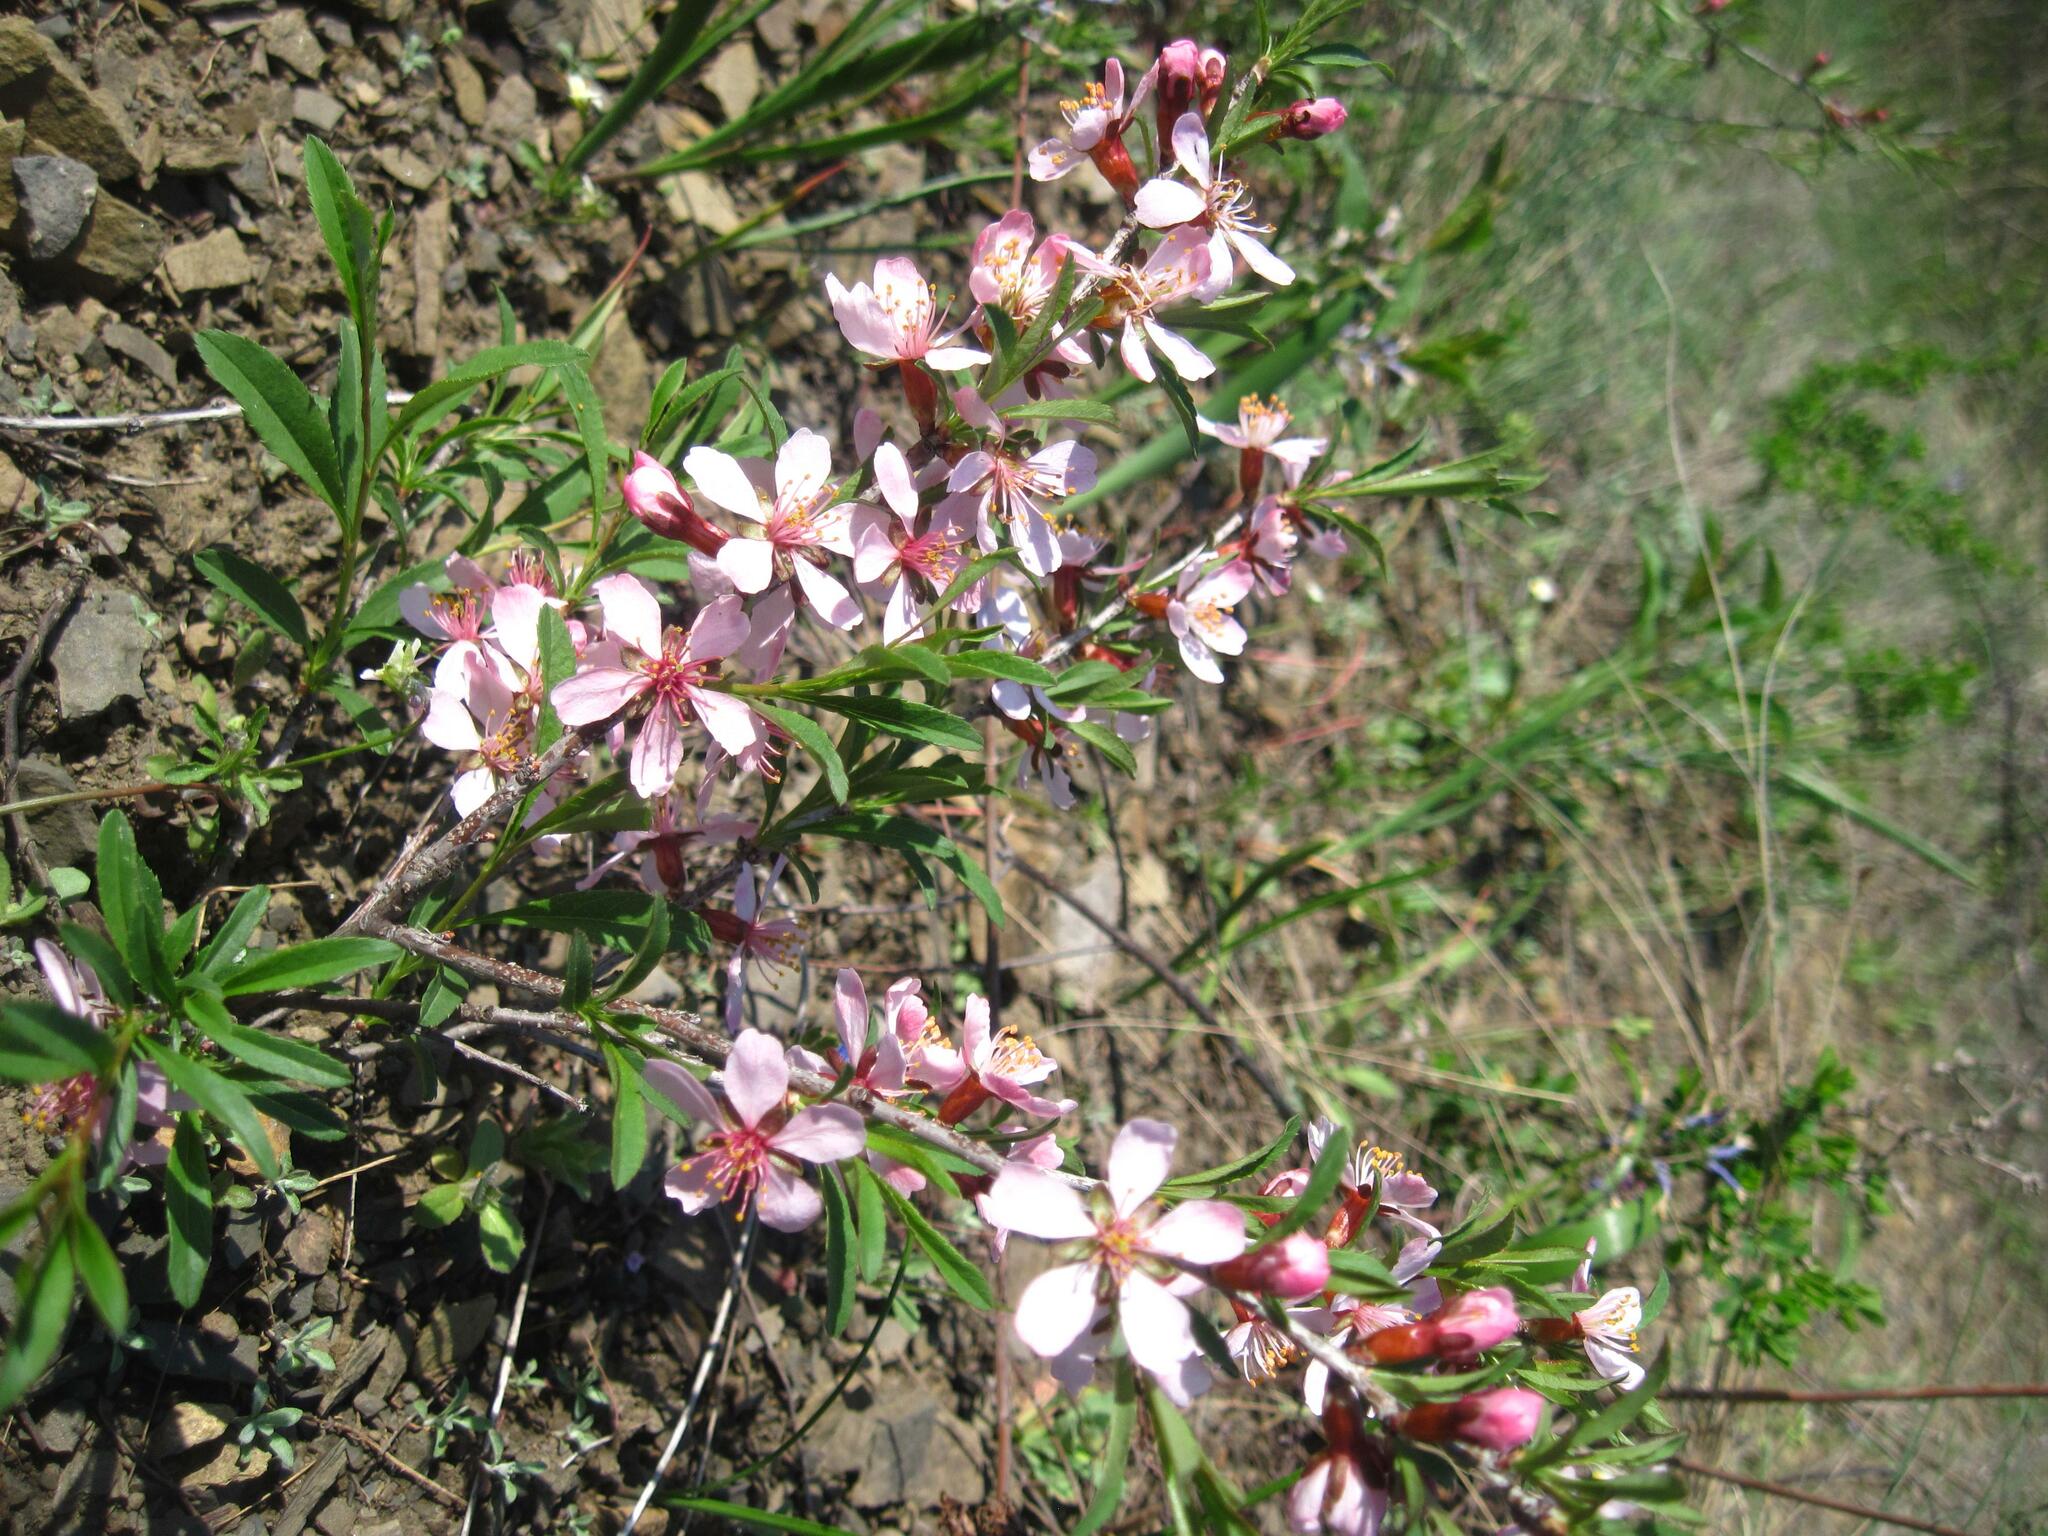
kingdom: Plantae
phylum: Tracheophyta
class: Magnoliopsida
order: Rosales
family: Rosaceae
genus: Prunus
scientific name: Prunus tenella
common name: Dwarf russian almond
